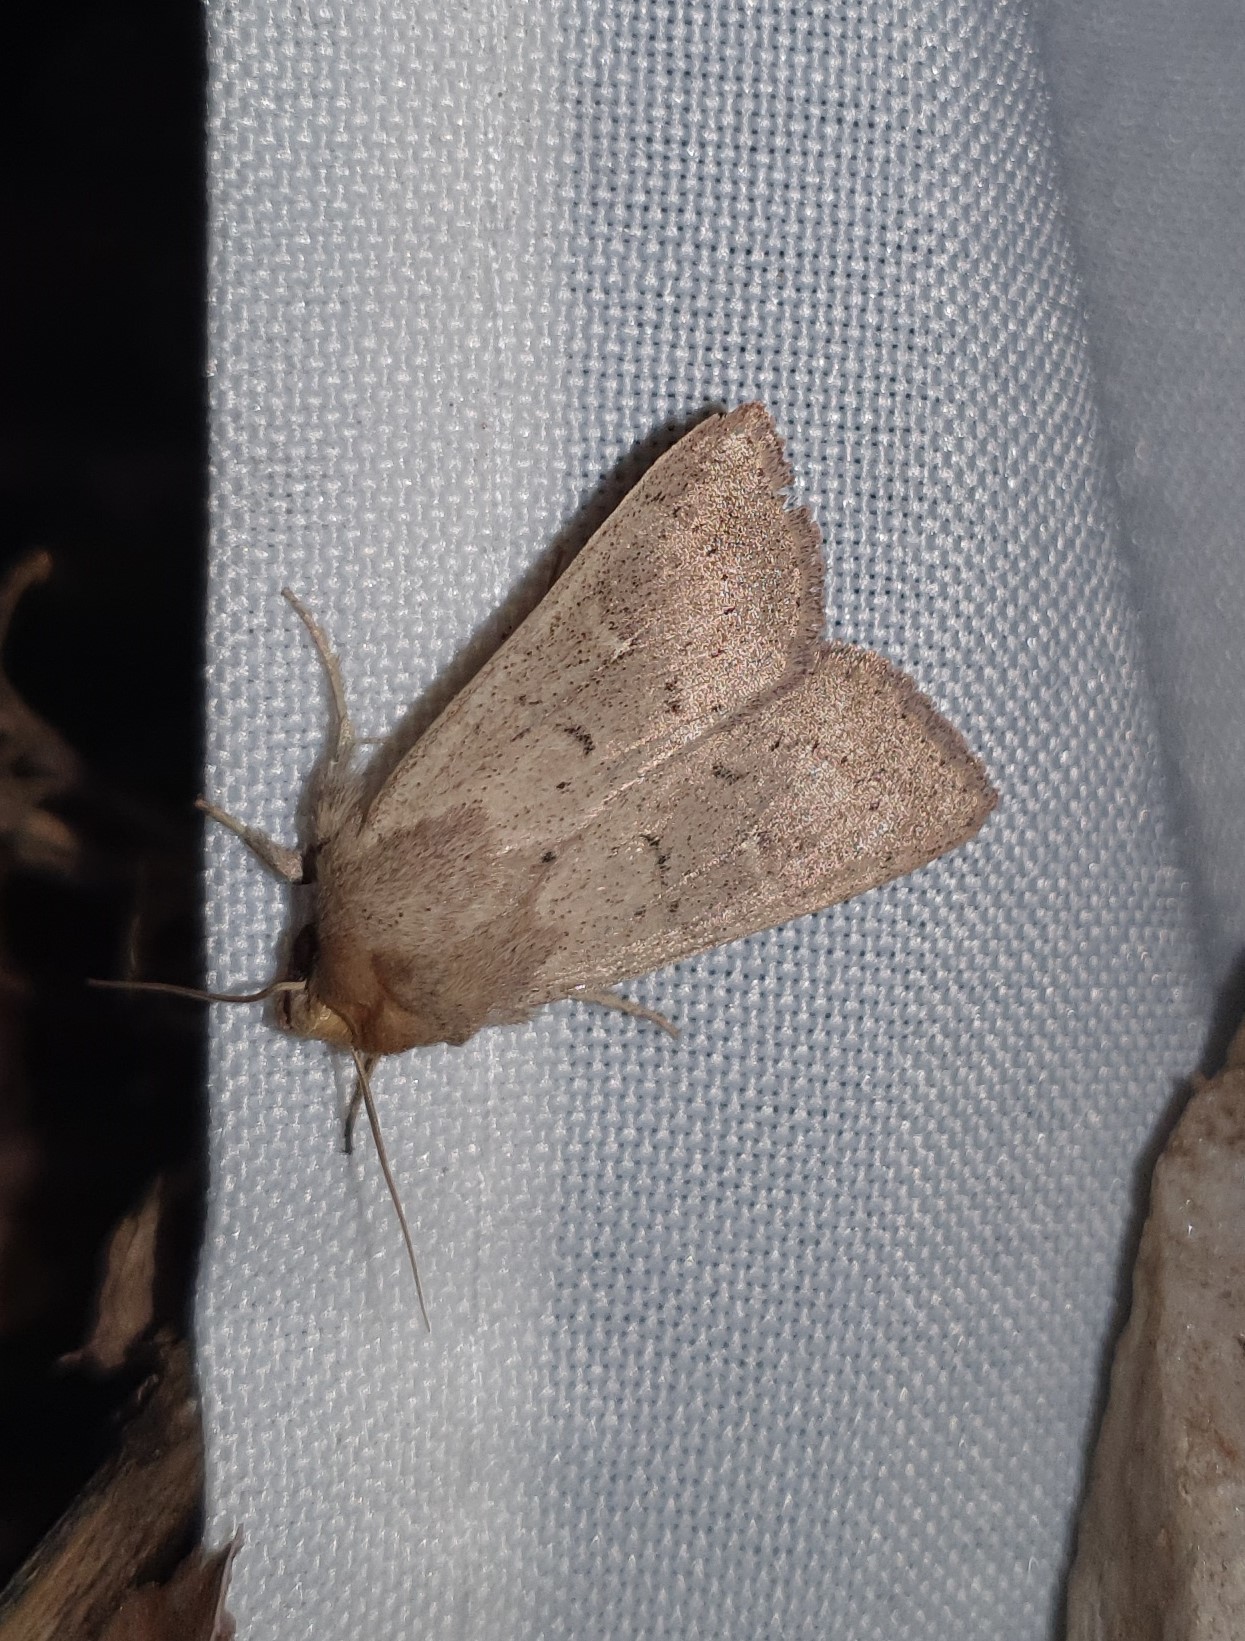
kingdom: Animalia
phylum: Arthropoda
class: Insecta
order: Lepidoptera
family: Noctuidae
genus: Mythimna
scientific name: Mythimna ferrago
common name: Clay
